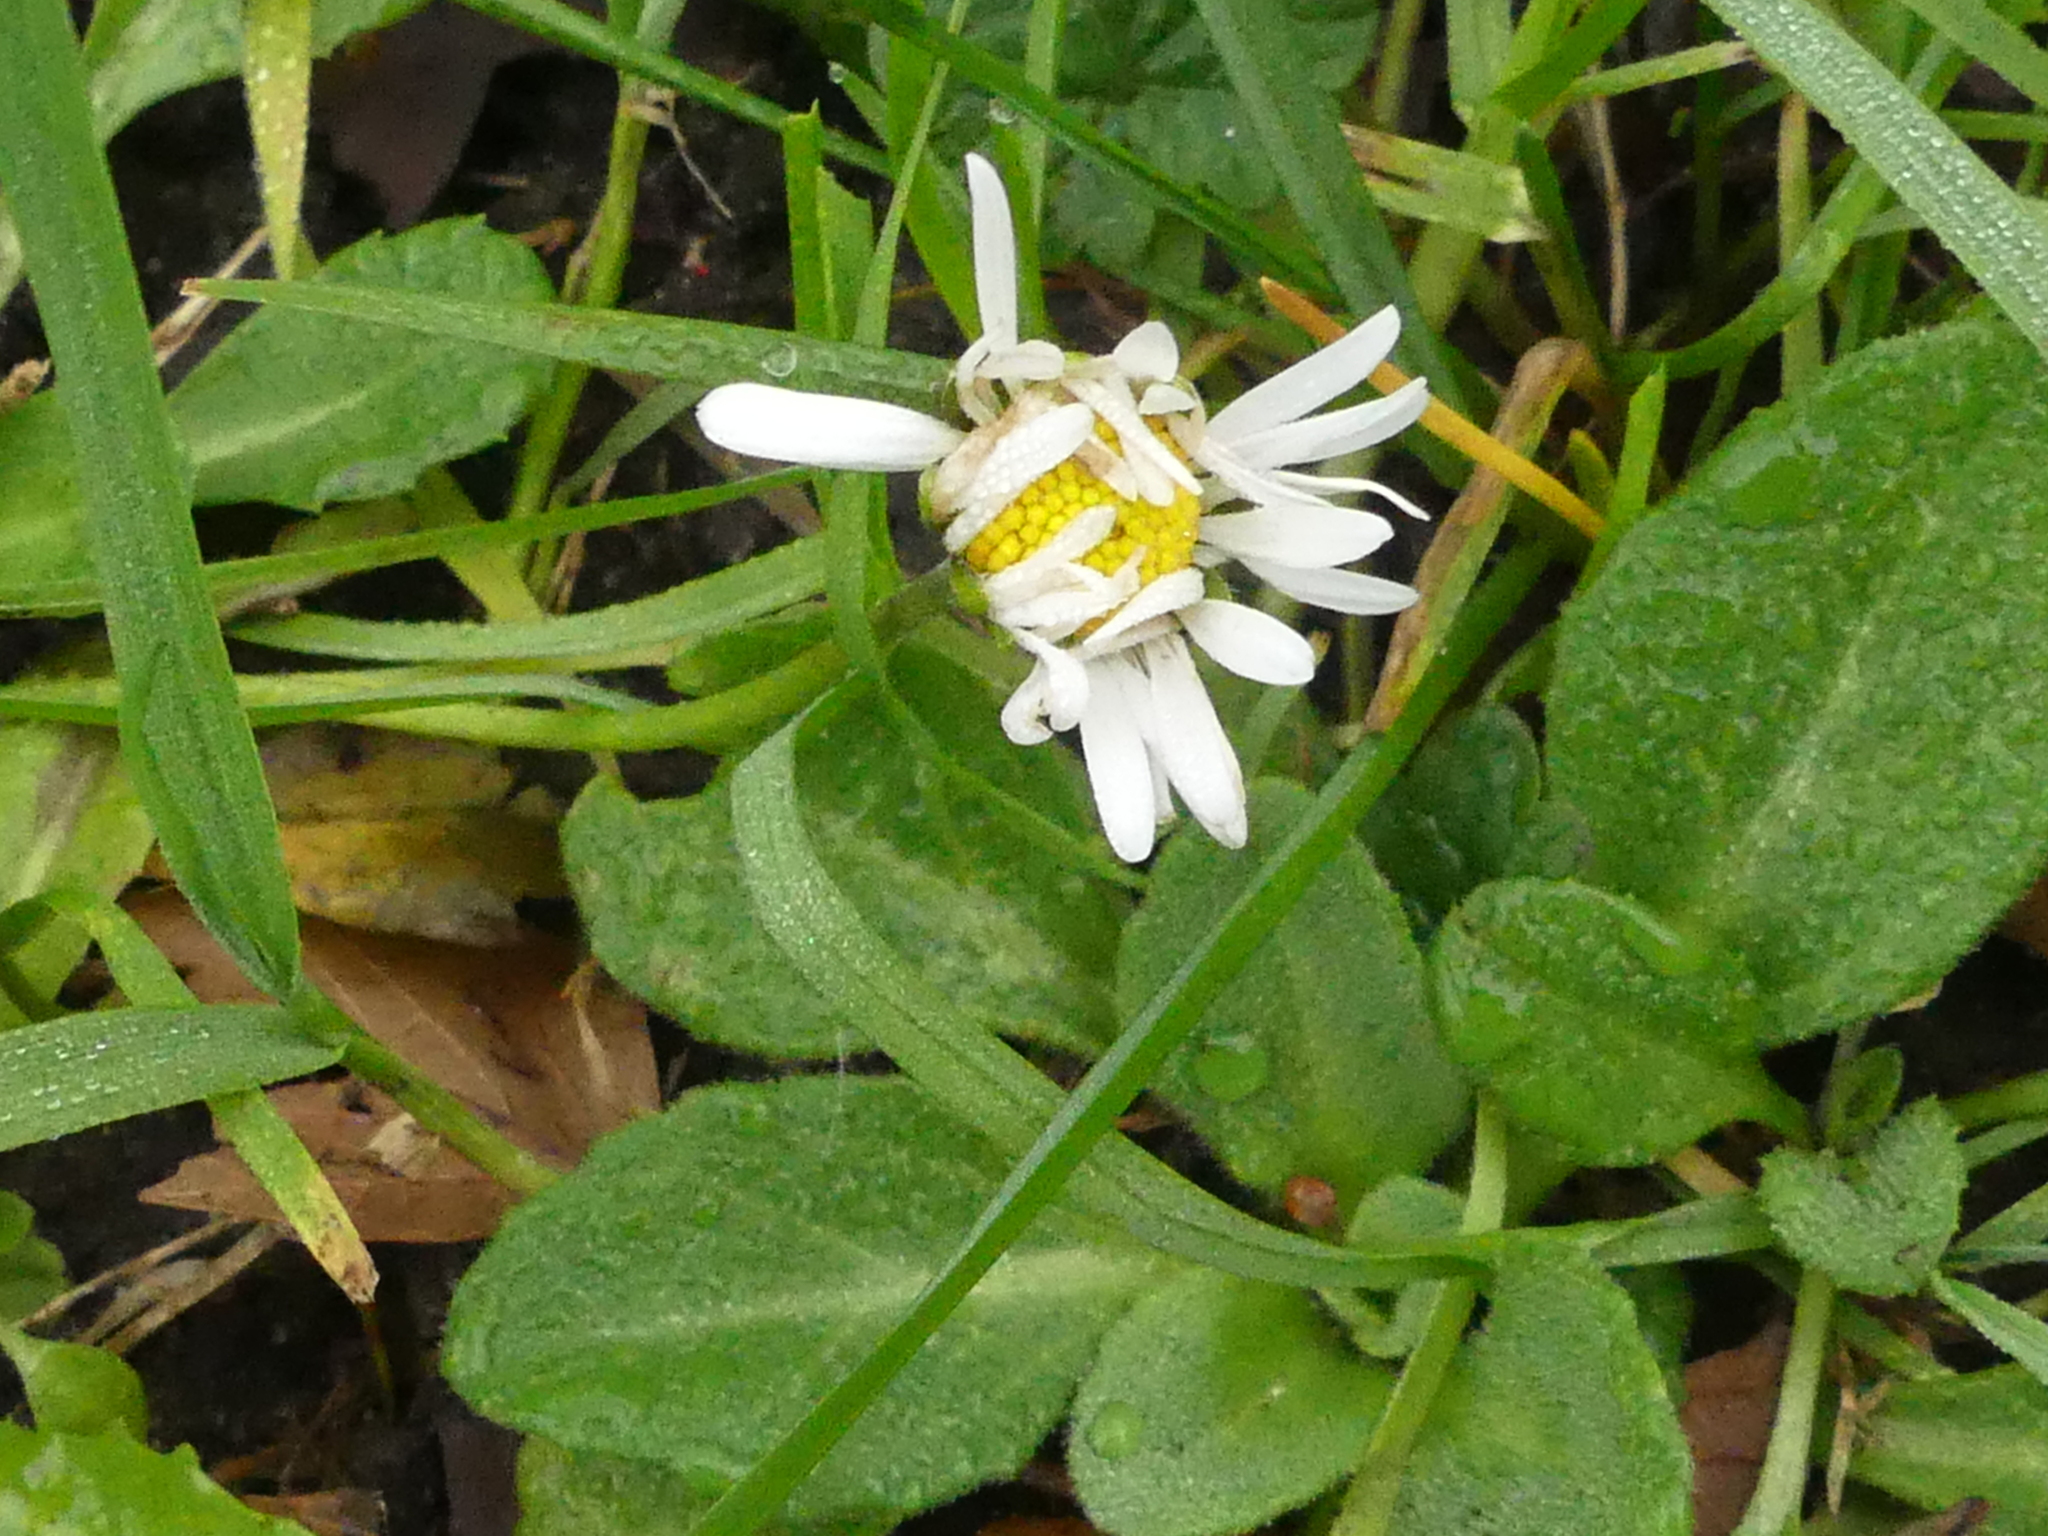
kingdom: Plantae
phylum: Tracheophyta
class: Magnoliopsida
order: Asterales
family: Asteraceae
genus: Bellis
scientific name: Bellis perennis
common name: Lawndaisy
